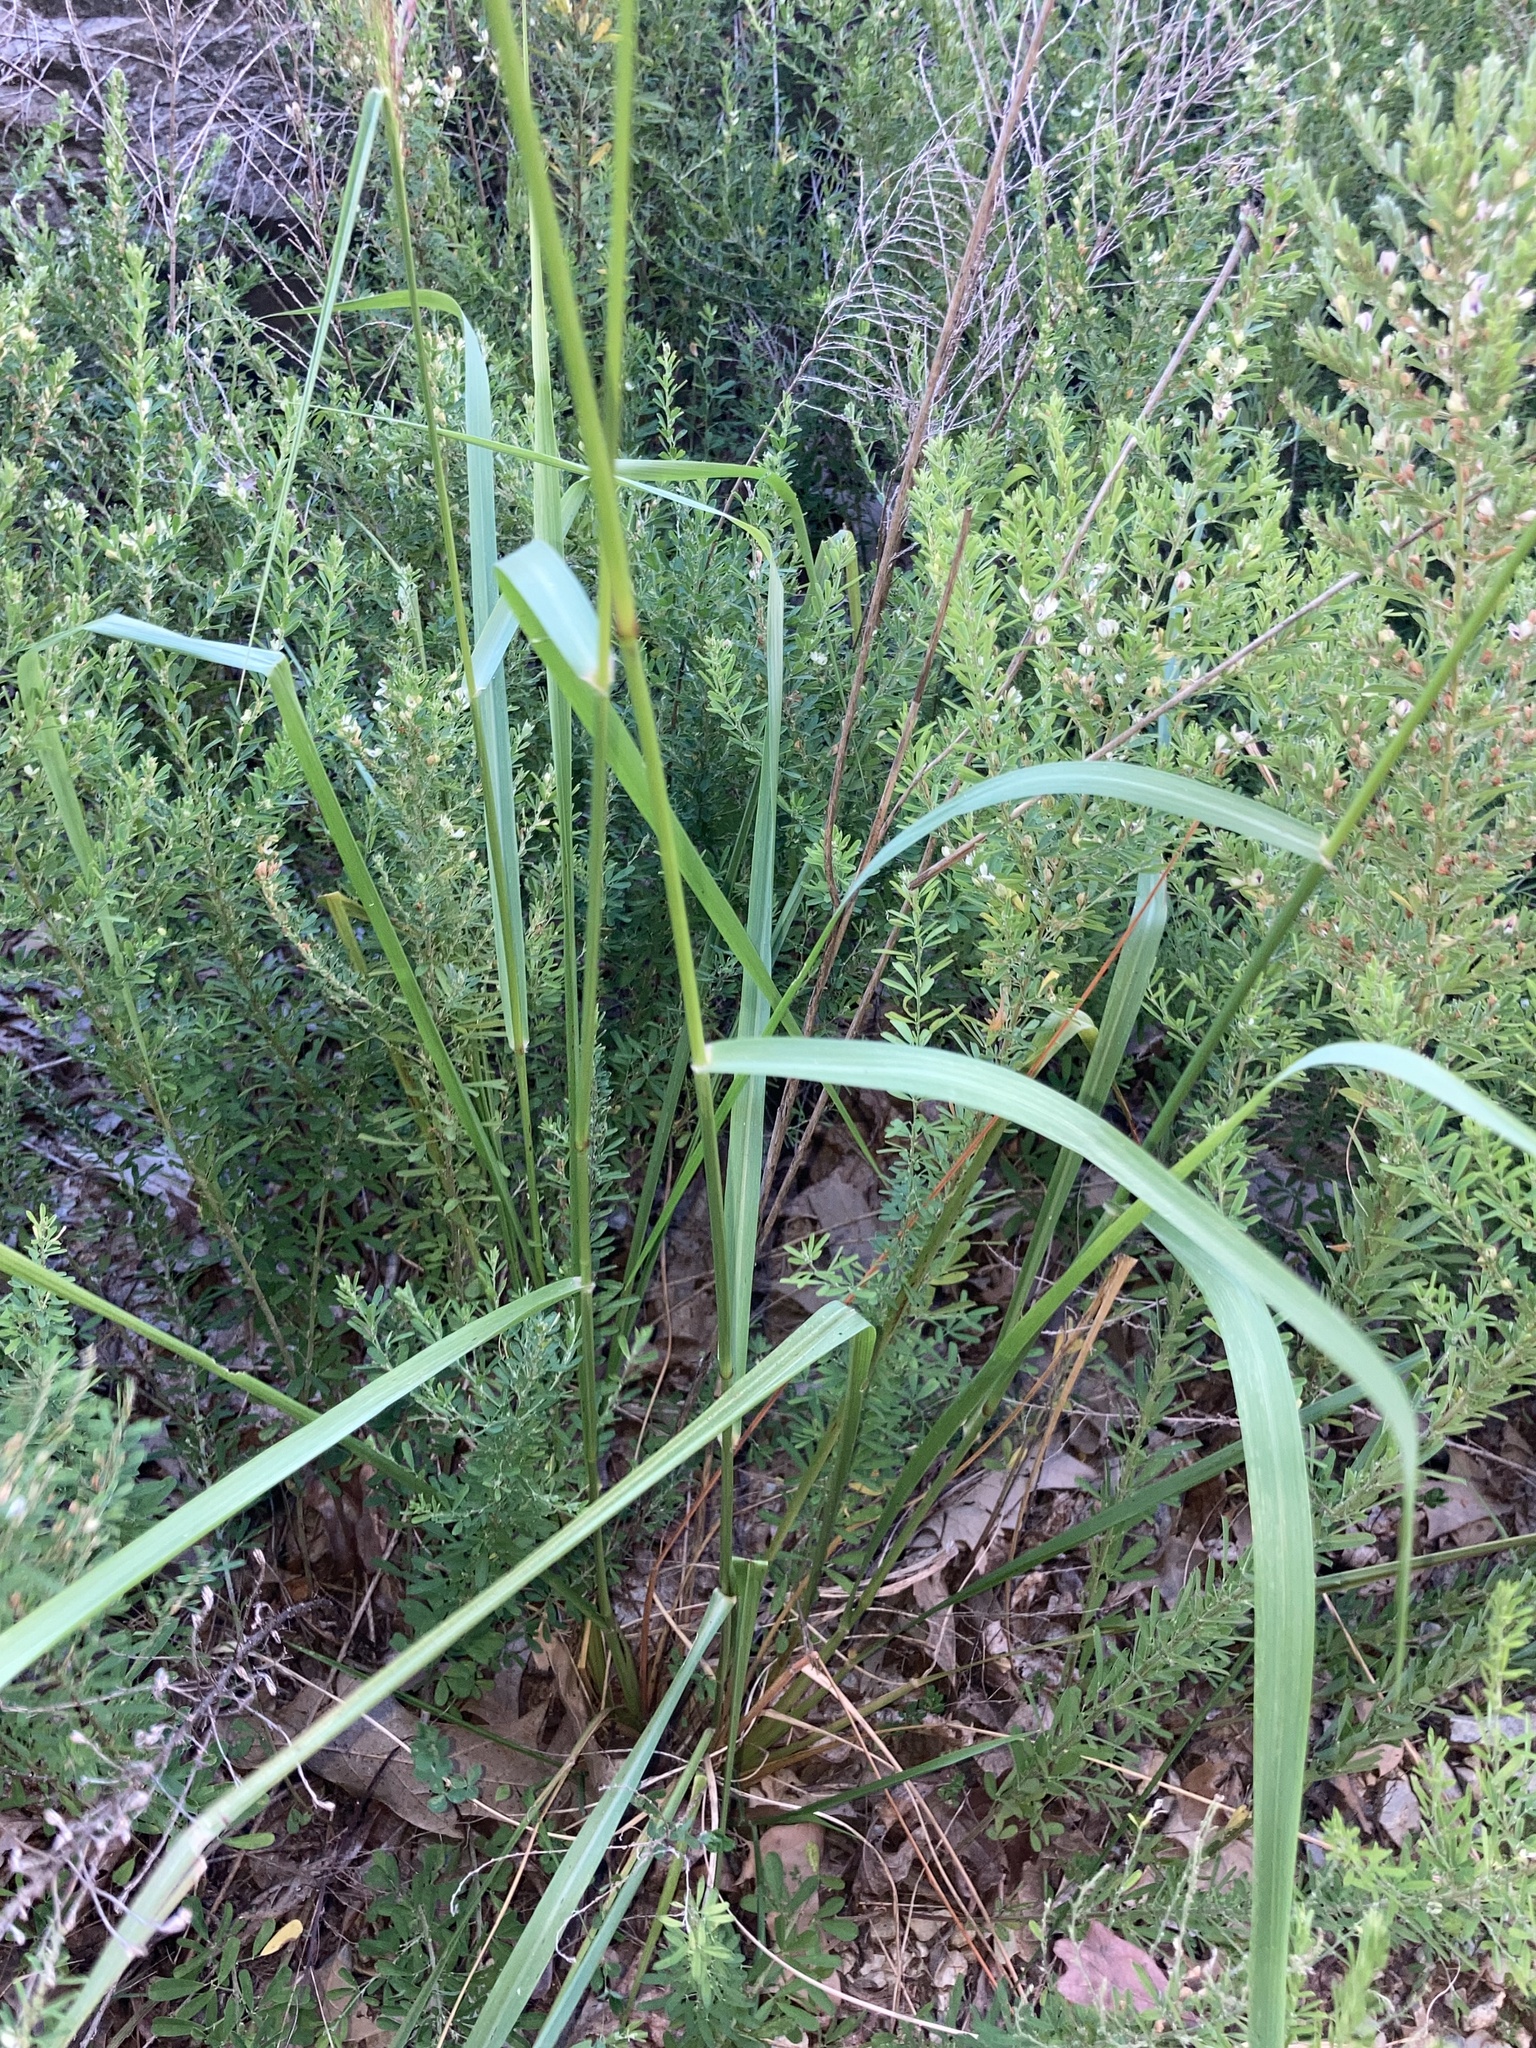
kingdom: Plantae
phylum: Tracheophyta
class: Liliopsida
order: Poales
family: Poaceae
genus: Tridens
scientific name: Tridens flavus
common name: Purpletop
